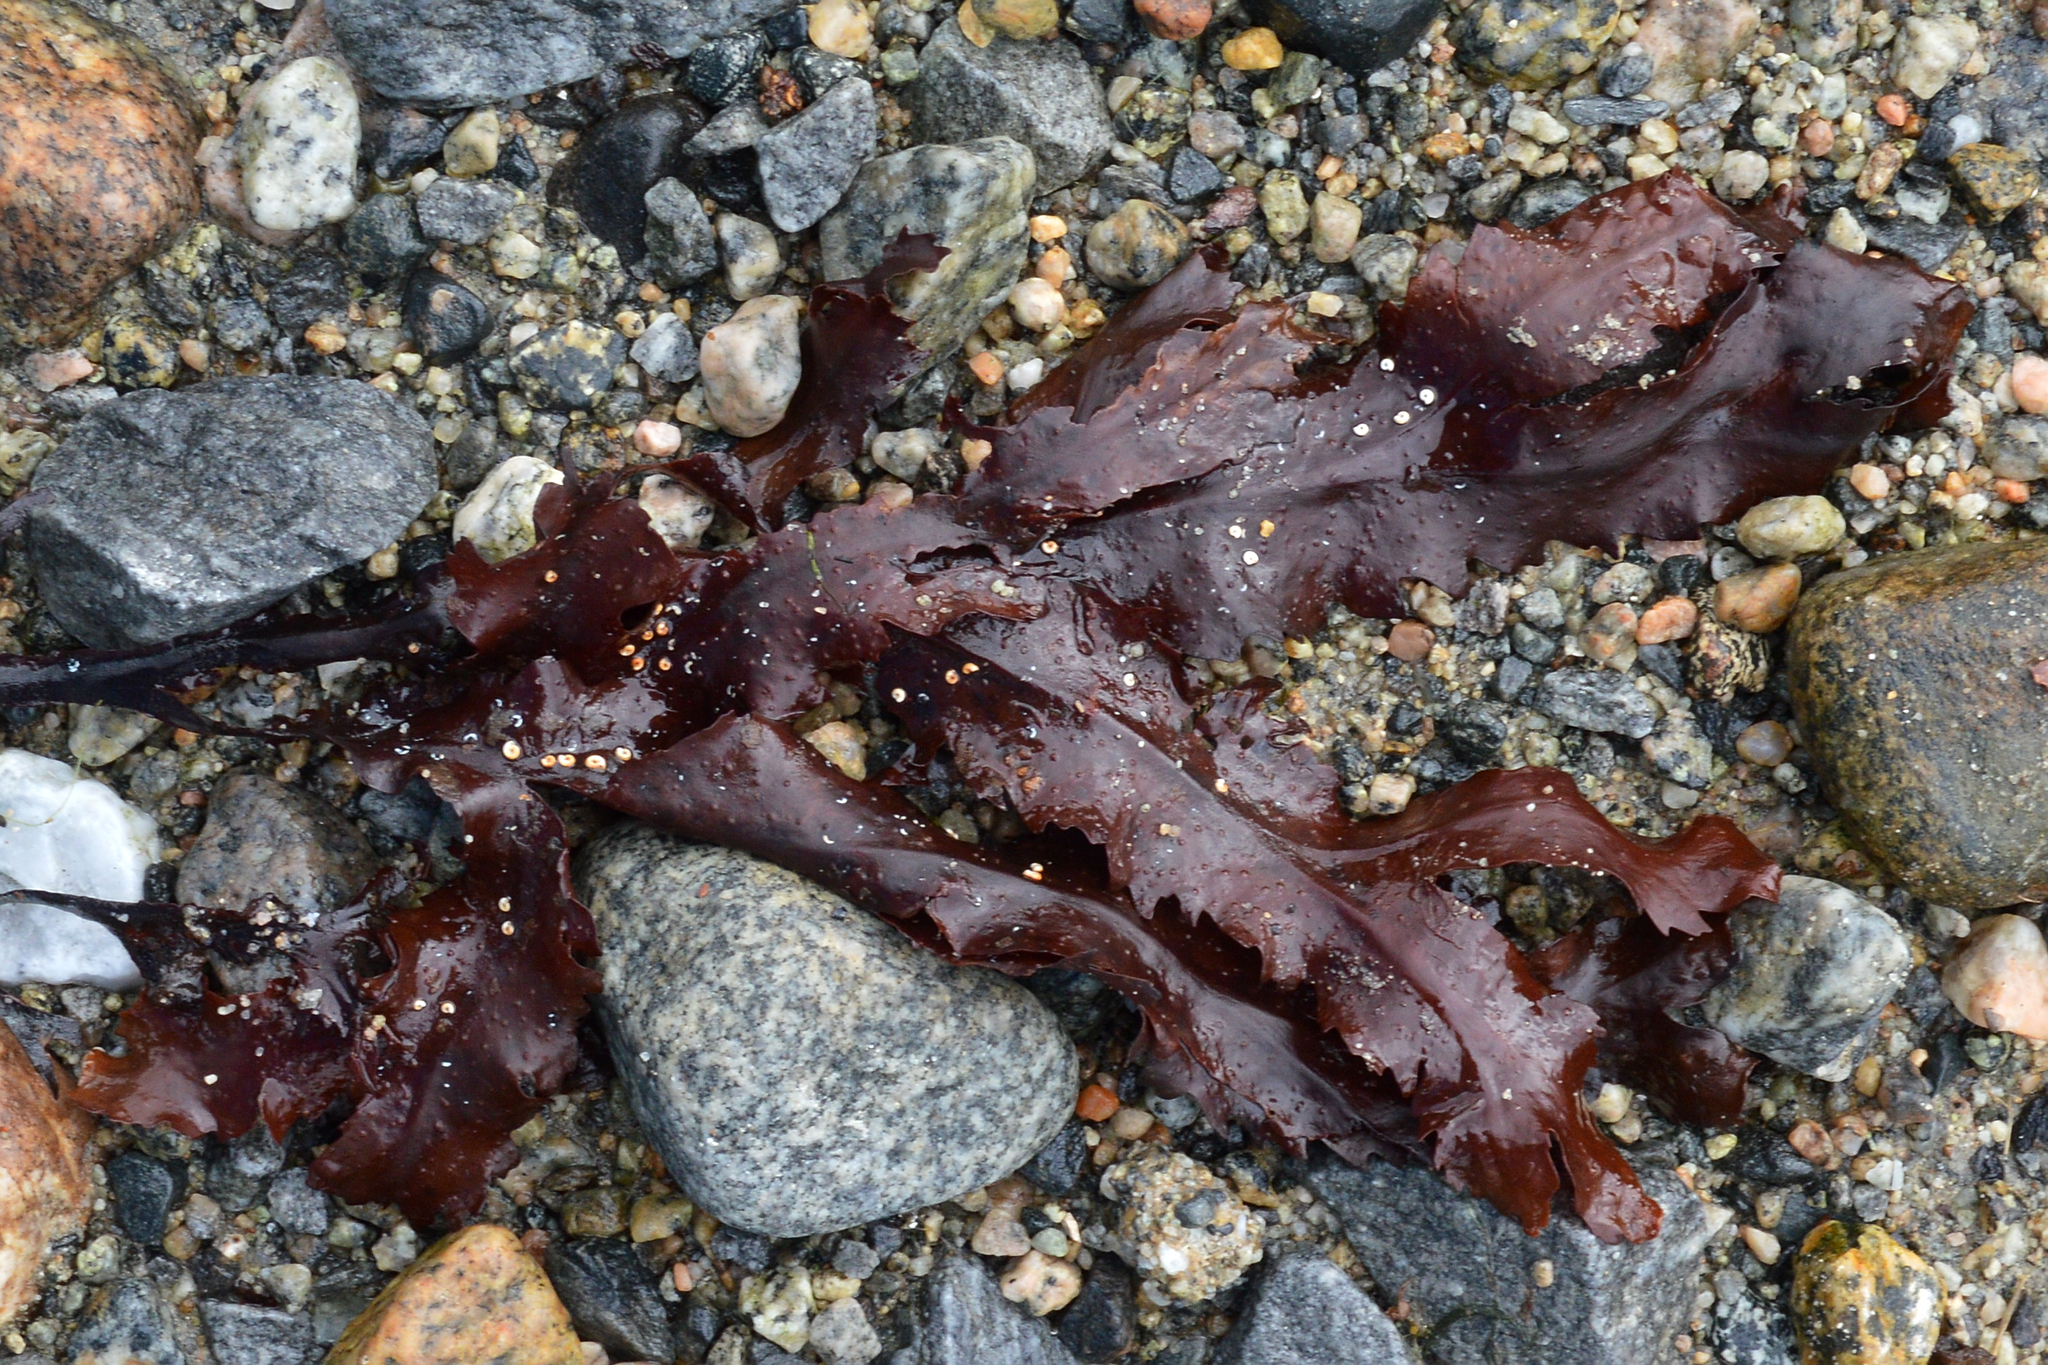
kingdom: Chromista
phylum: Ochrophyta
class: Phaeophyceae
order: Fucales
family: Fucaceae
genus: Fucus
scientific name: Fucus serratus
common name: Toothed wrack
